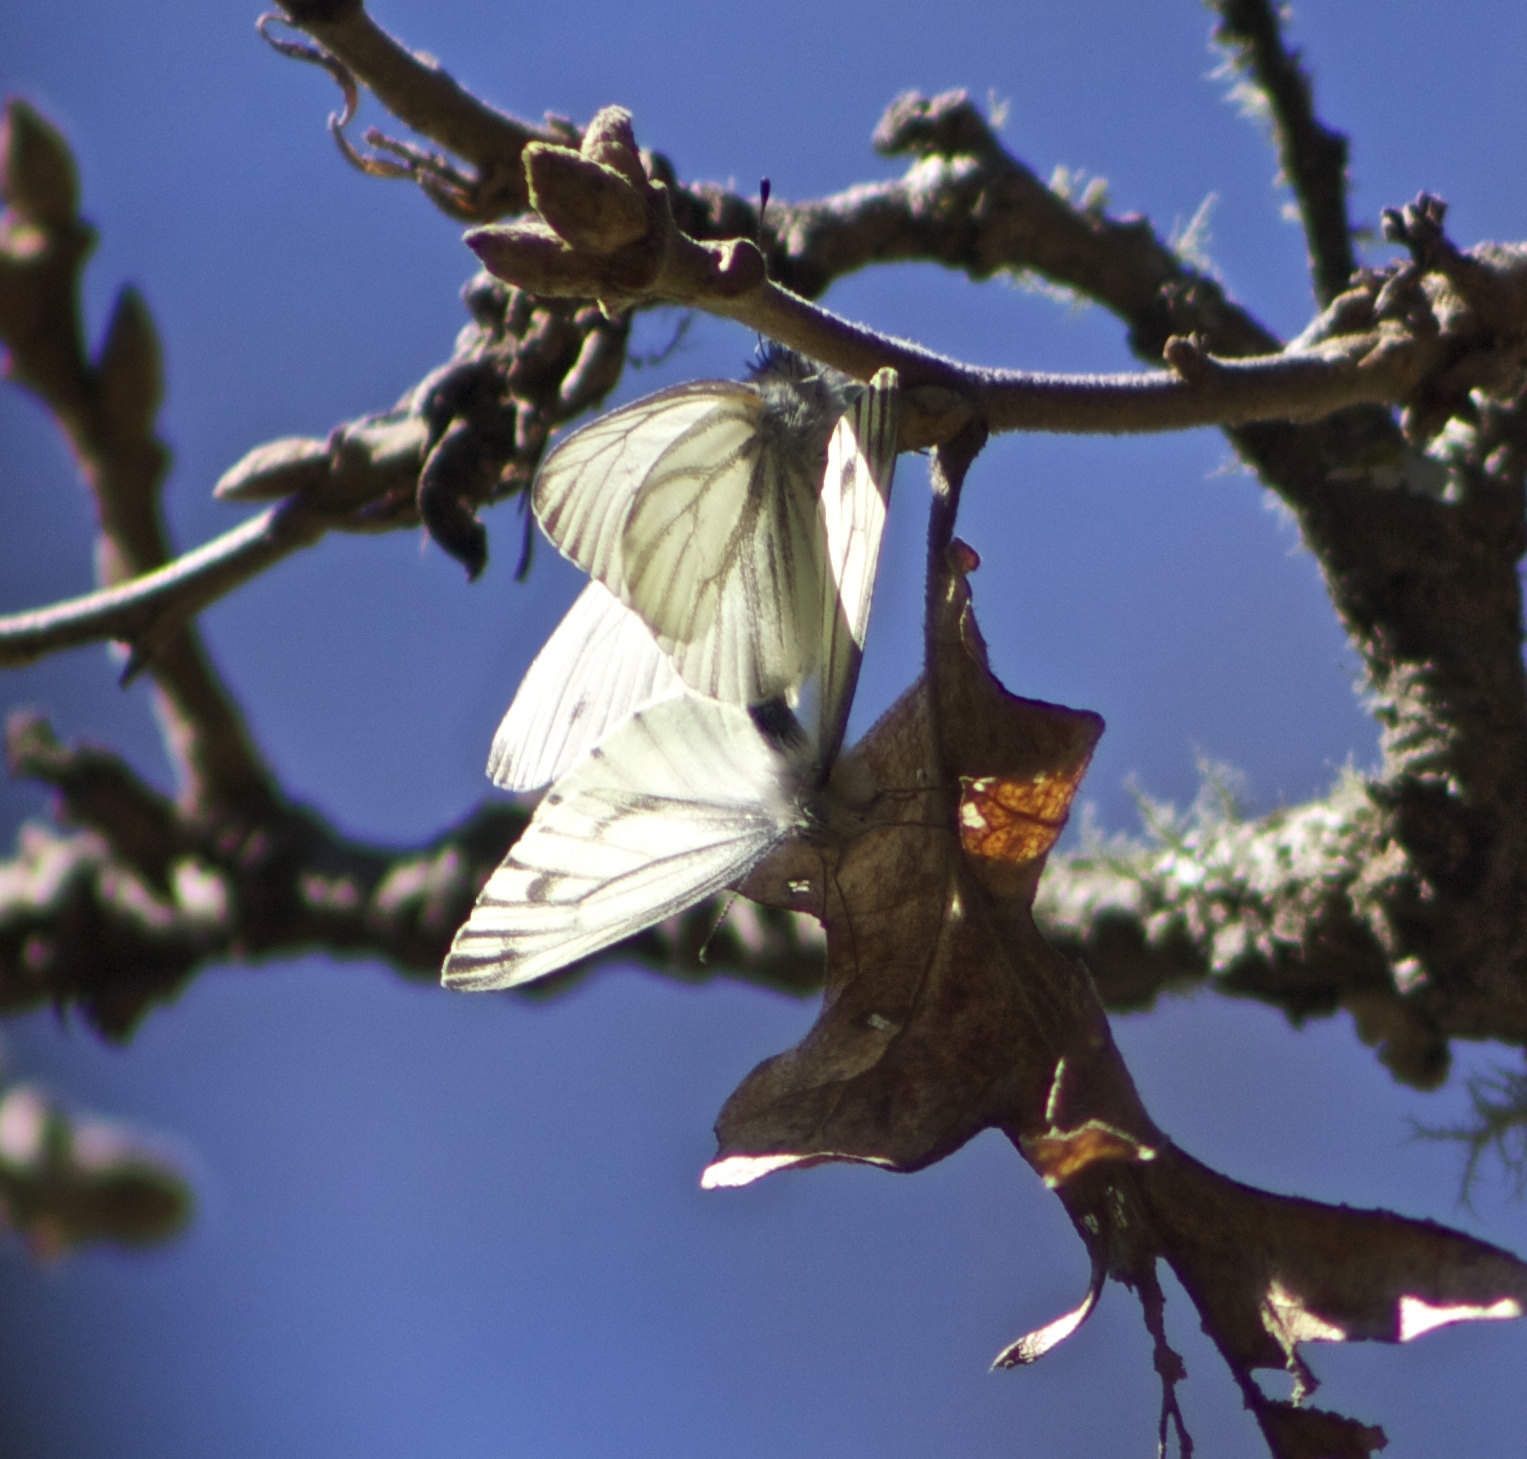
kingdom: Animalia
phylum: Arthropoda
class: Insecta
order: Lepidoptera
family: Pieridae
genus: Pieris
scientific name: Pieris marginalis
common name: Margined white
